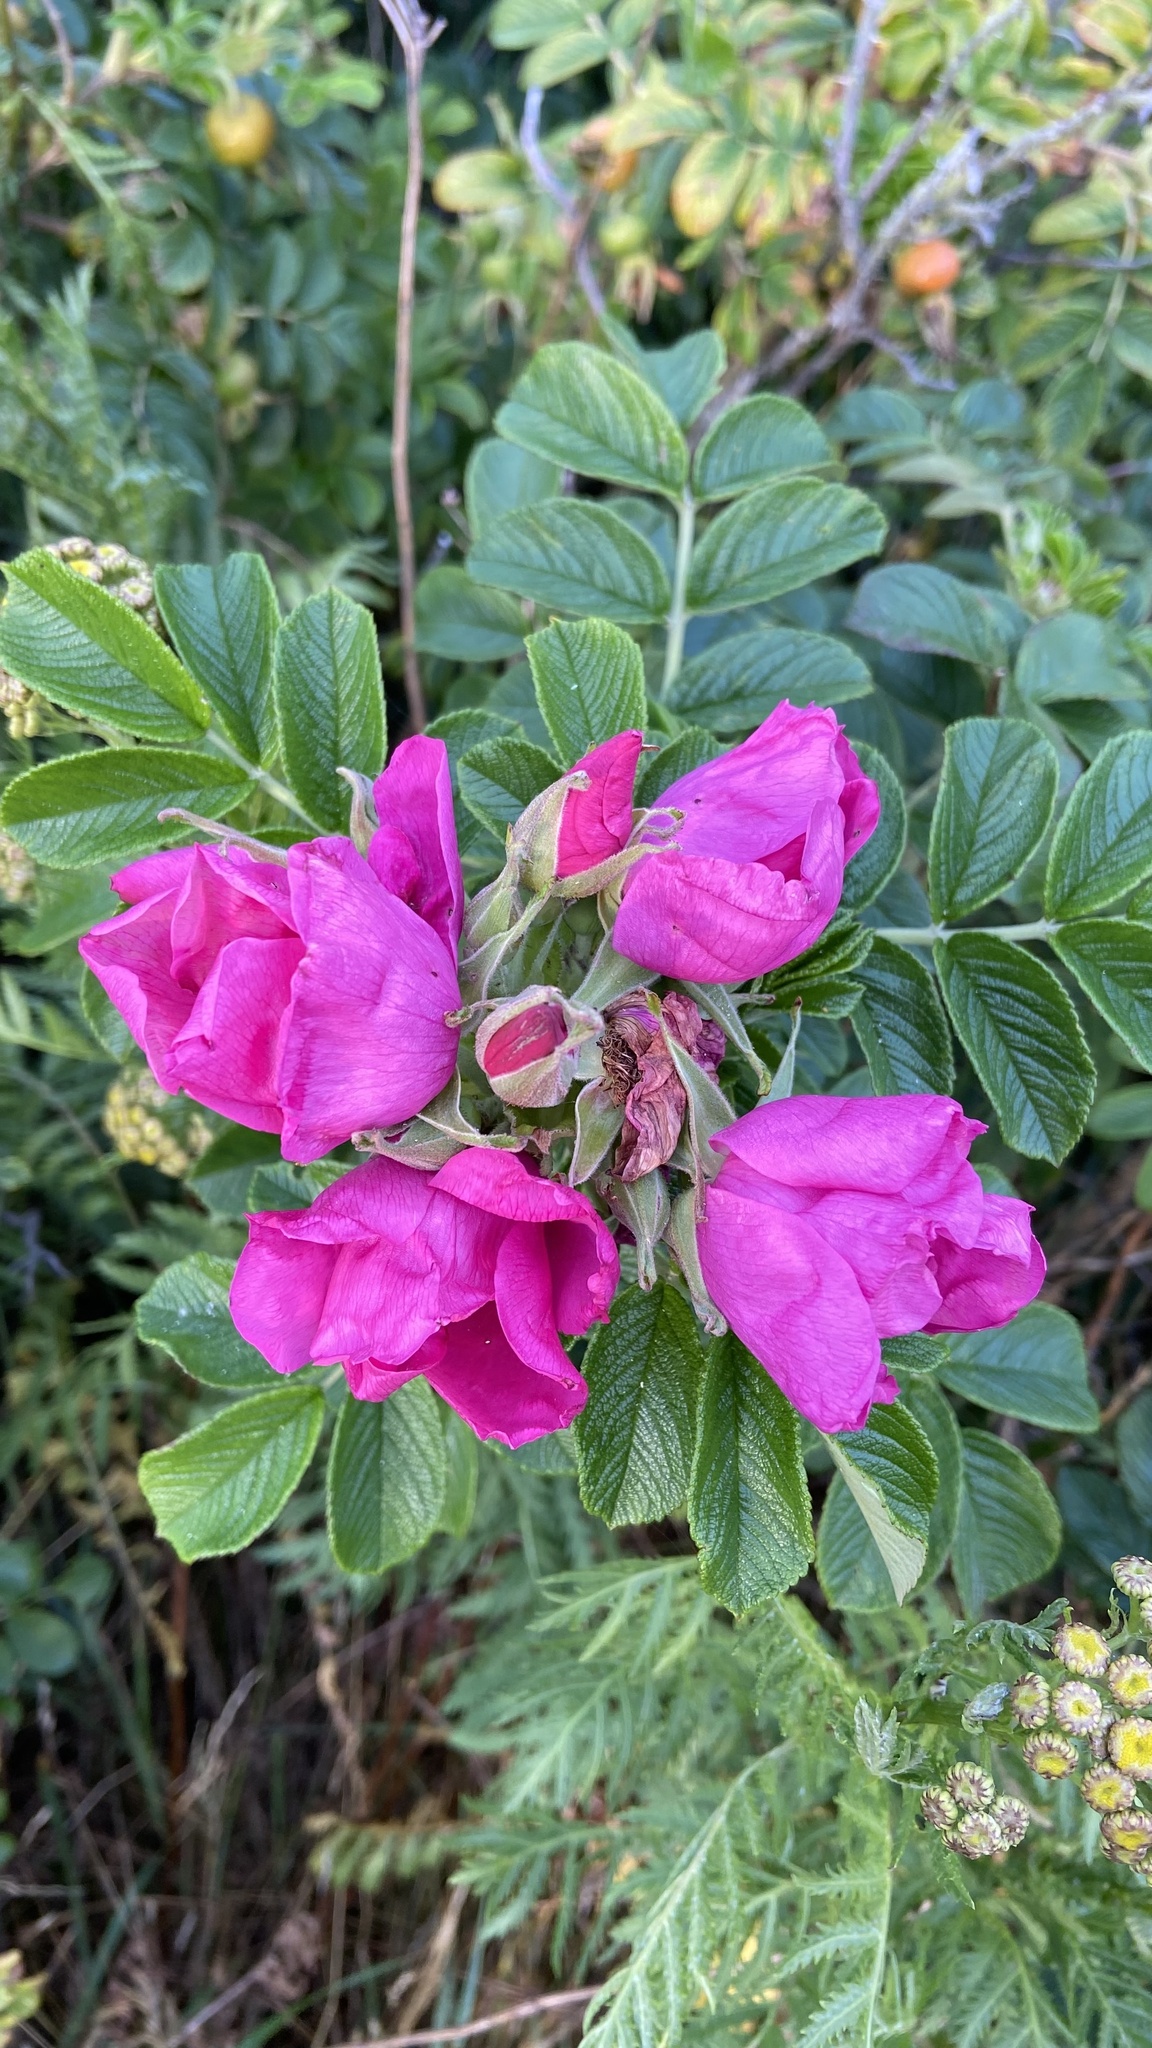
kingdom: Plantae
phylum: Tracheophyta
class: Magnoliopsida
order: Rosales
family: Rosaceae
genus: Rosa
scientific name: Rosa rugosa
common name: Japanese rose
